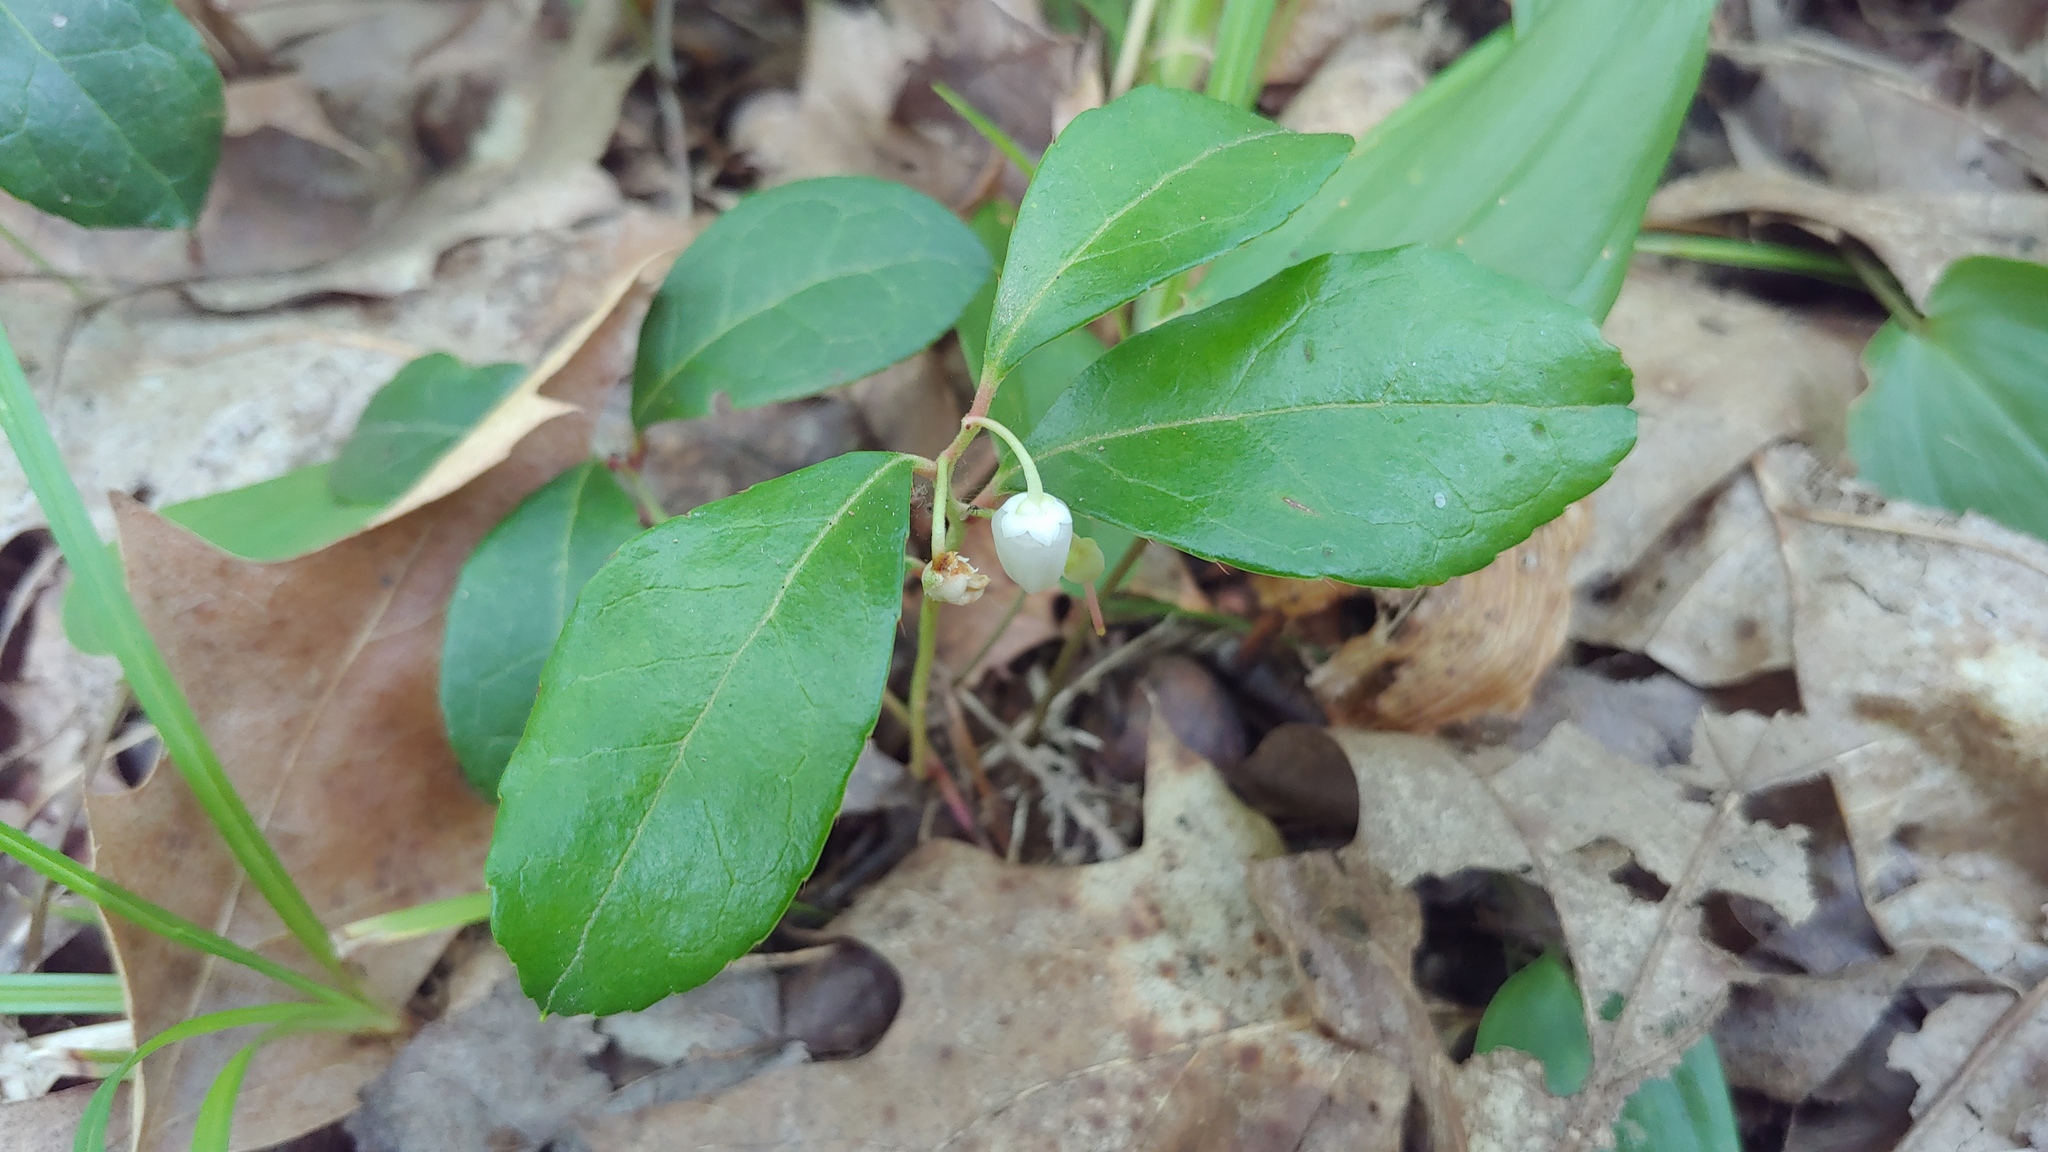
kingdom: Plantae
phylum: Tracheophyta
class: Magnoliopsida
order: Ericales
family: Ericaceae
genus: Gaultheria
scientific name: Gaultheria procumbens
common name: Checkerberry
